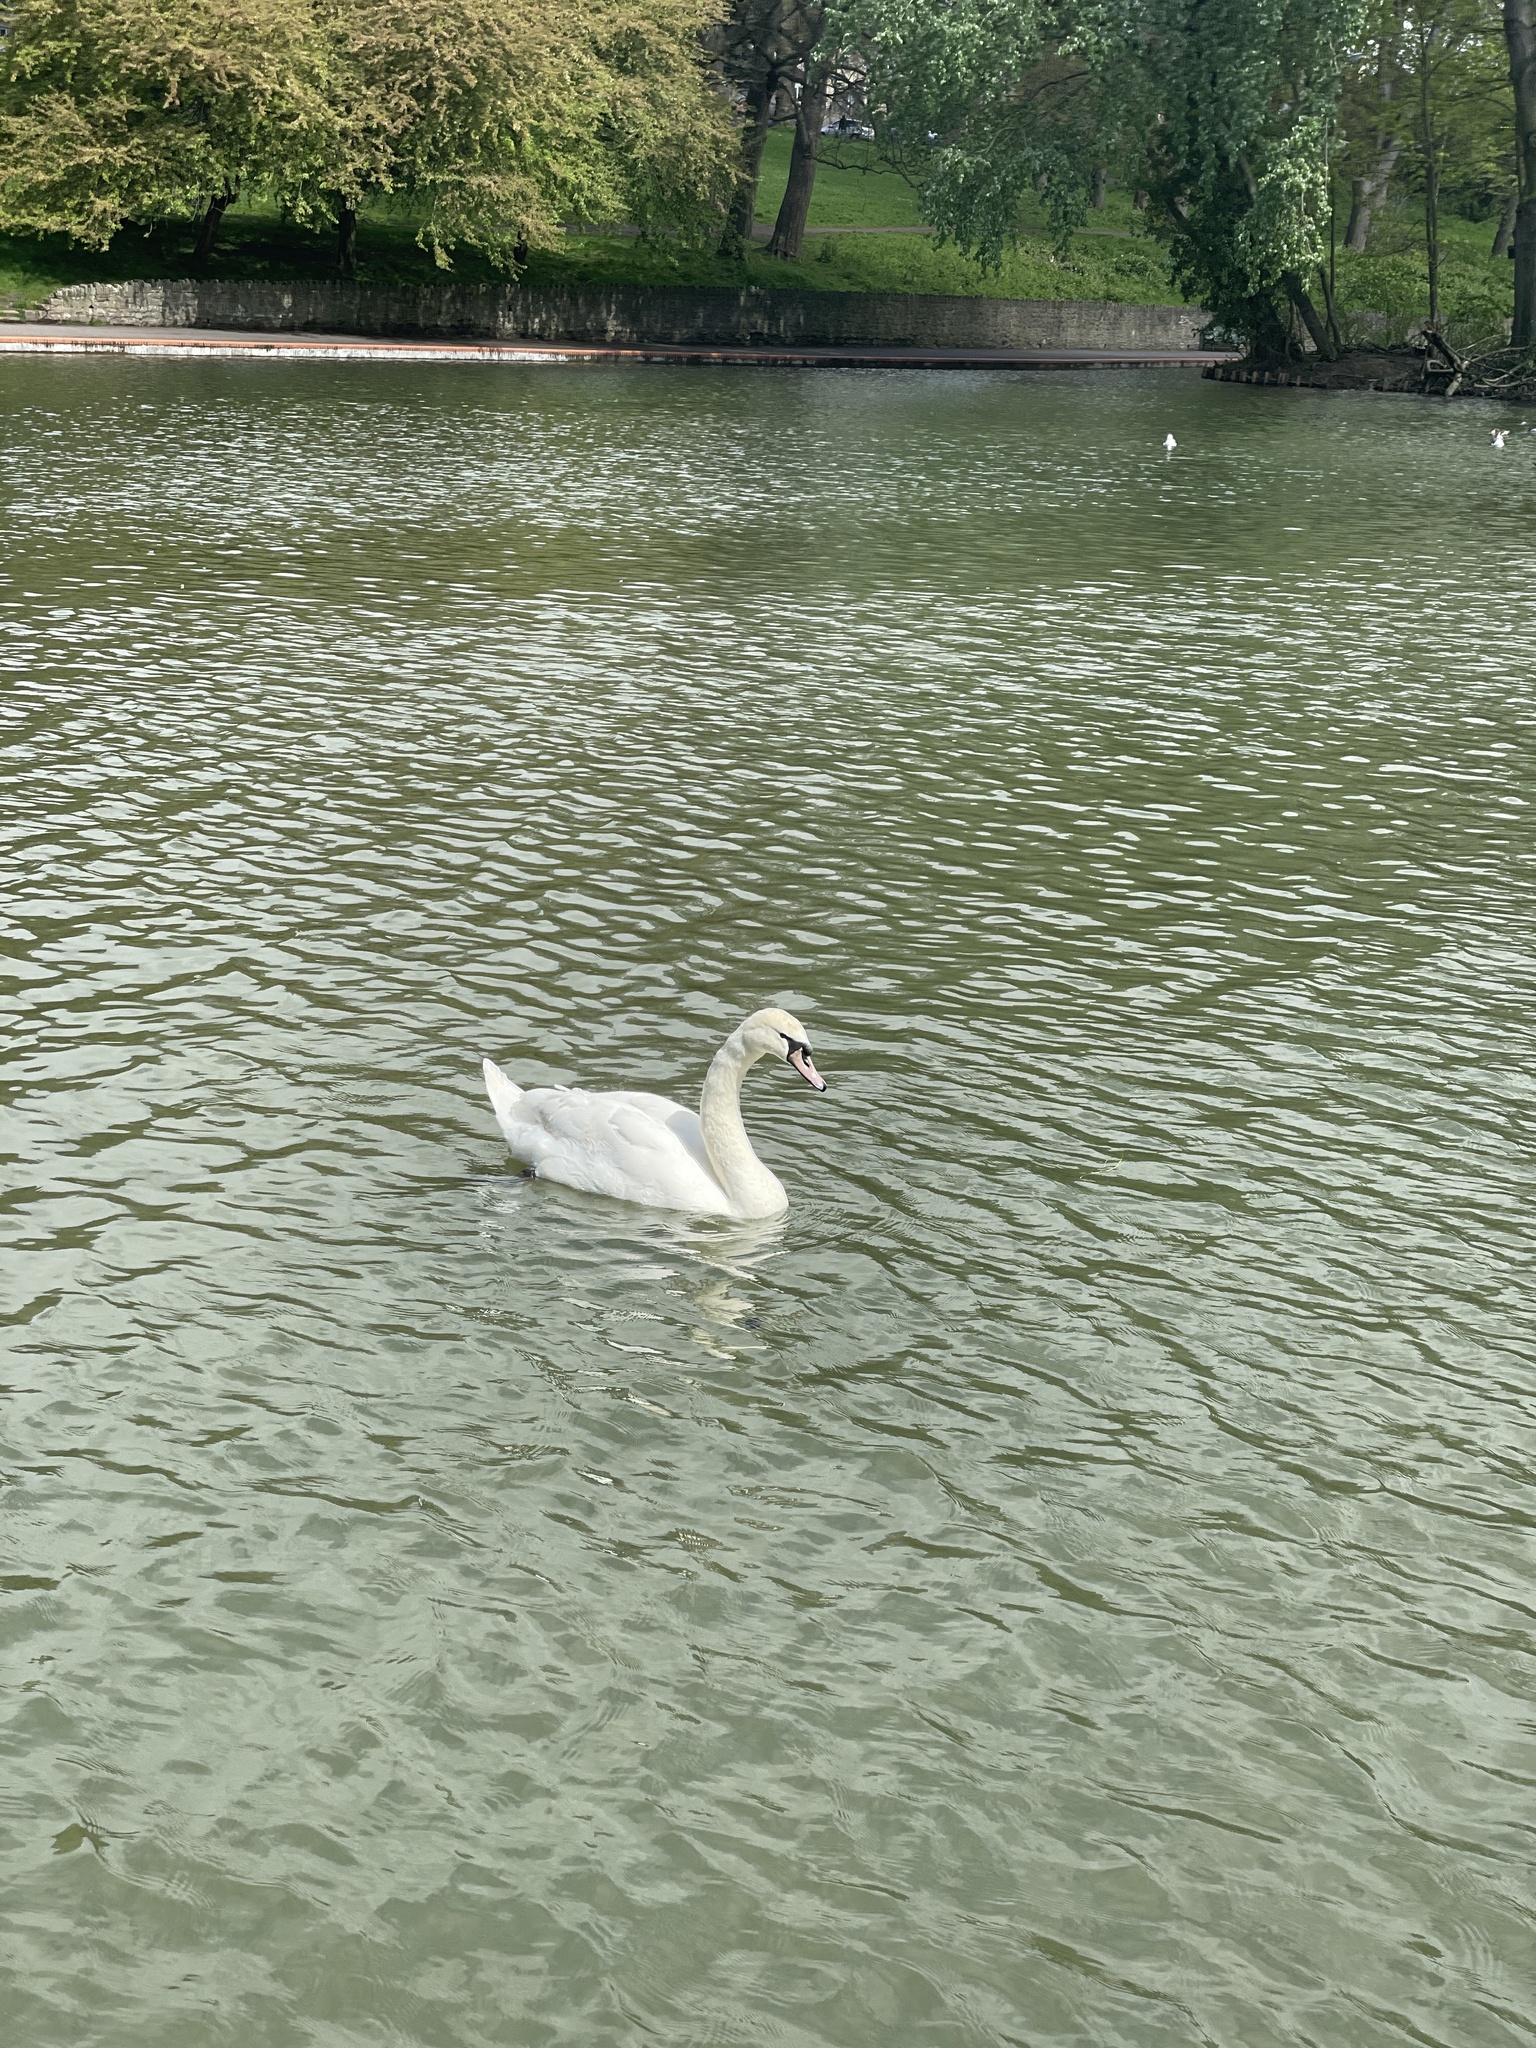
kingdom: Animalia
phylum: Chordata
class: Aves
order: Anseriformes
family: Anatidae
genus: Cygnus
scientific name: Cygnus olor
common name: Mute swan
